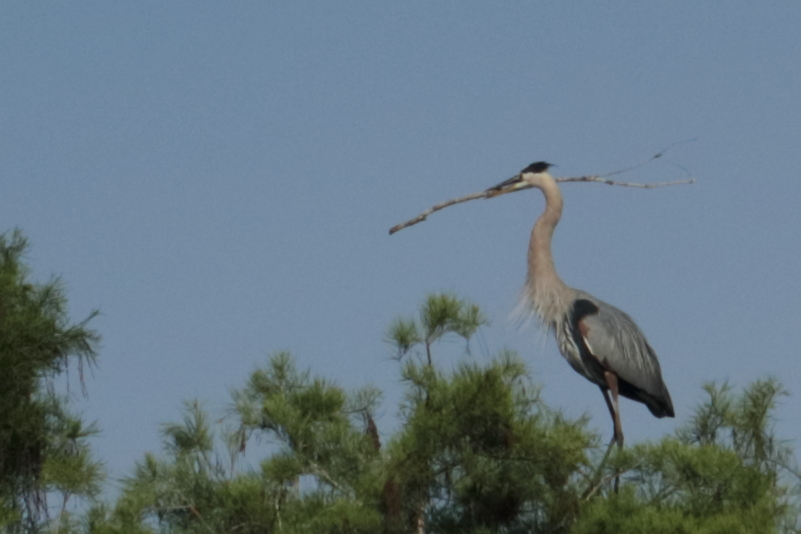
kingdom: Animalia
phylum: Chordata
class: Aves
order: Pelecaniformes
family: Ardeidae
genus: Ardea
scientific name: Ardea herodias
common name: Great blue heron
